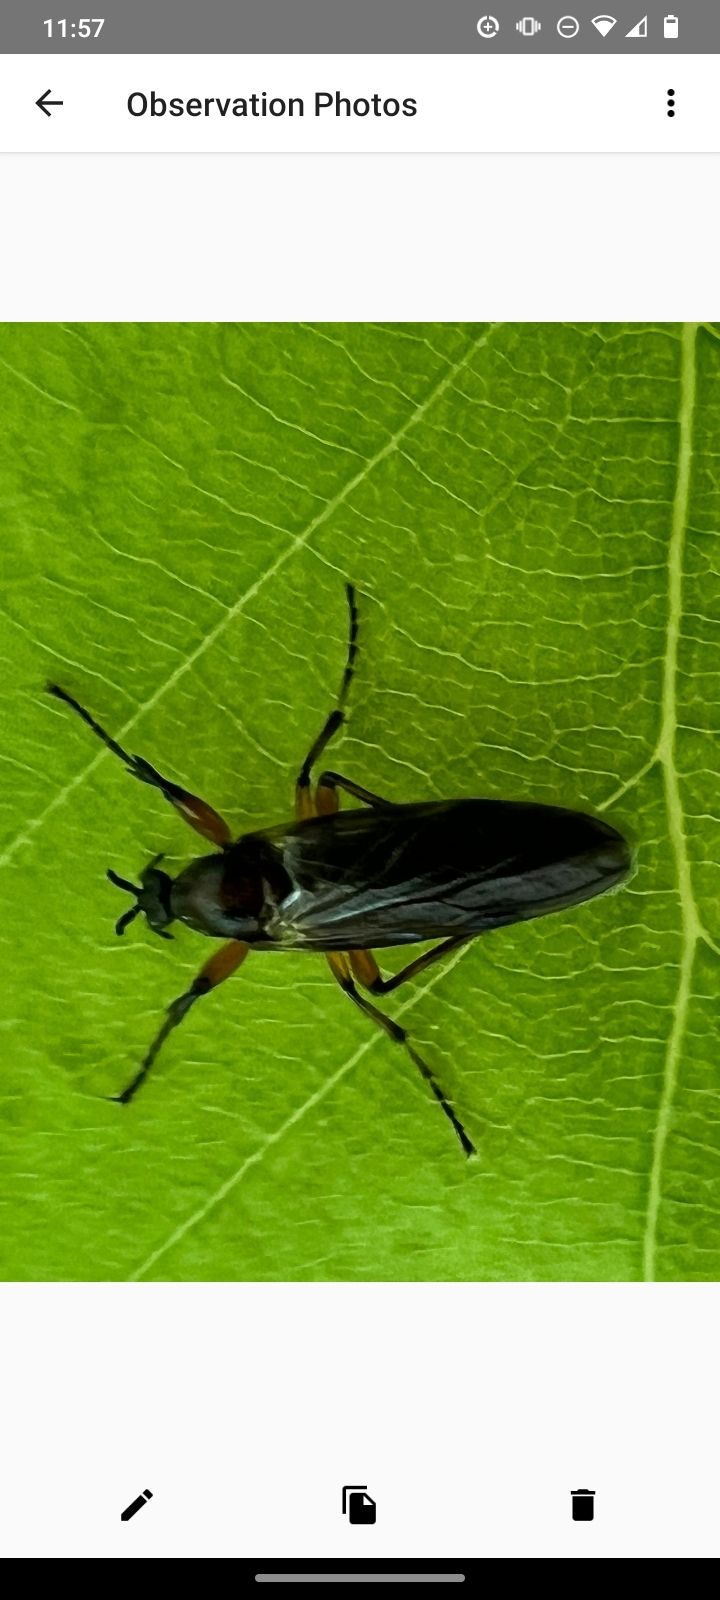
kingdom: Animalia
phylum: Arthropoda
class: Insecta
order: Diptera
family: Bibionidae
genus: Bibio
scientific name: Bibio
